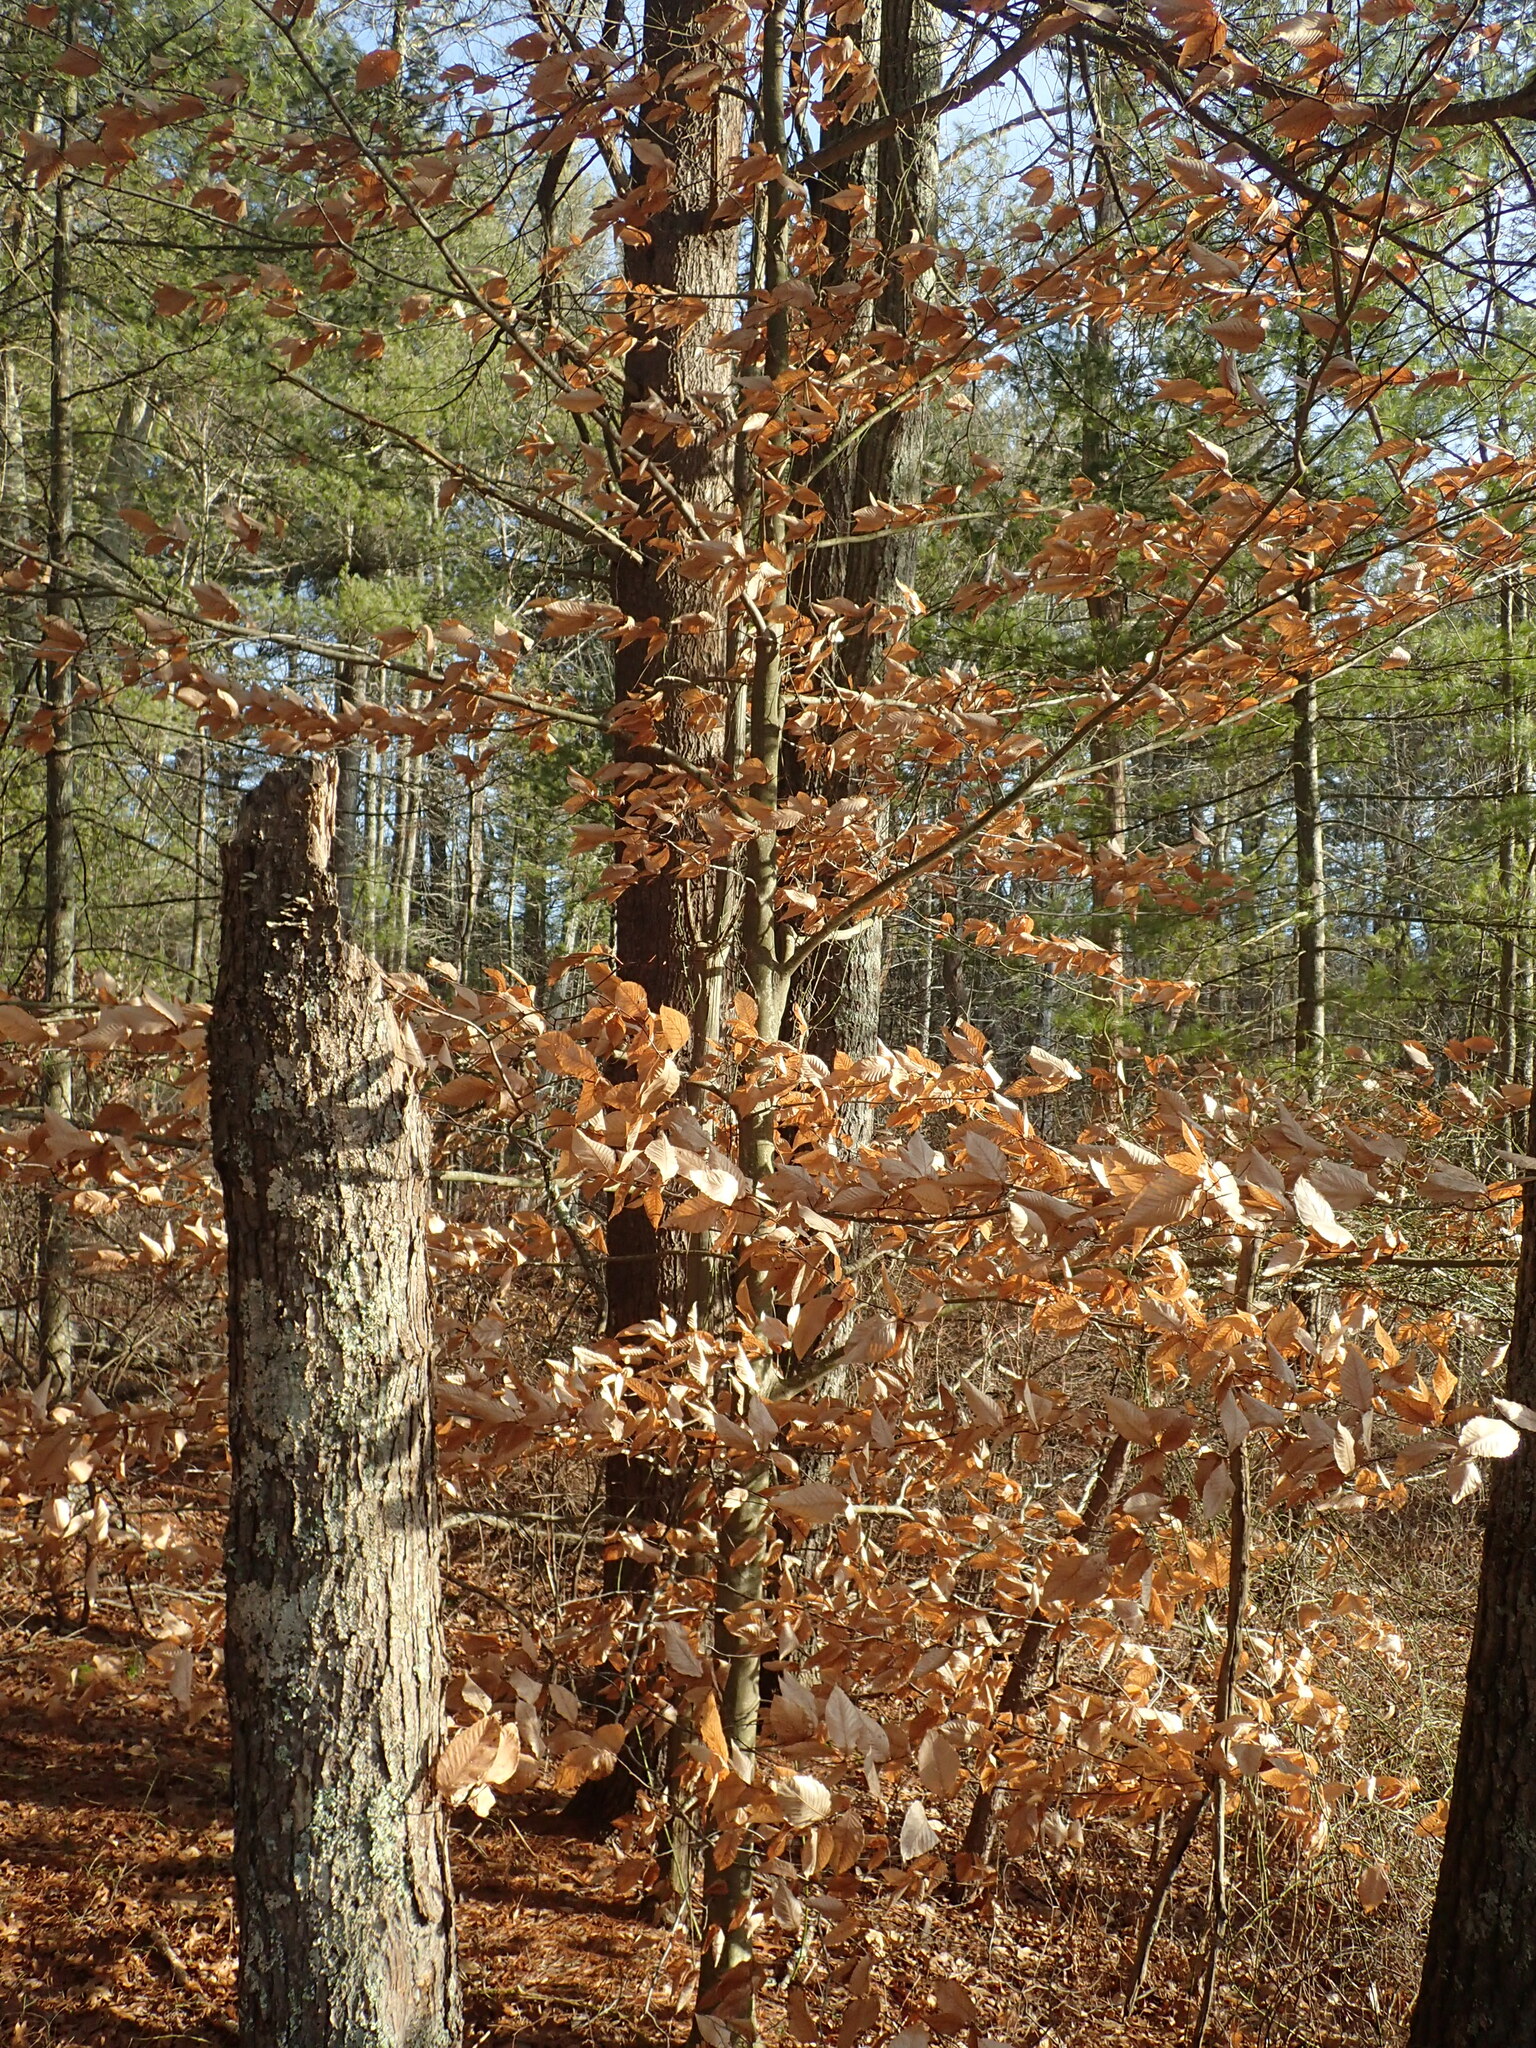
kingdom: Plantae
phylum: Tracheophyta
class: Magnoliopsida
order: Fagales
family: Fagaceae
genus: Fagus
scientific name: Fagus grandifolia
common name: American beech
